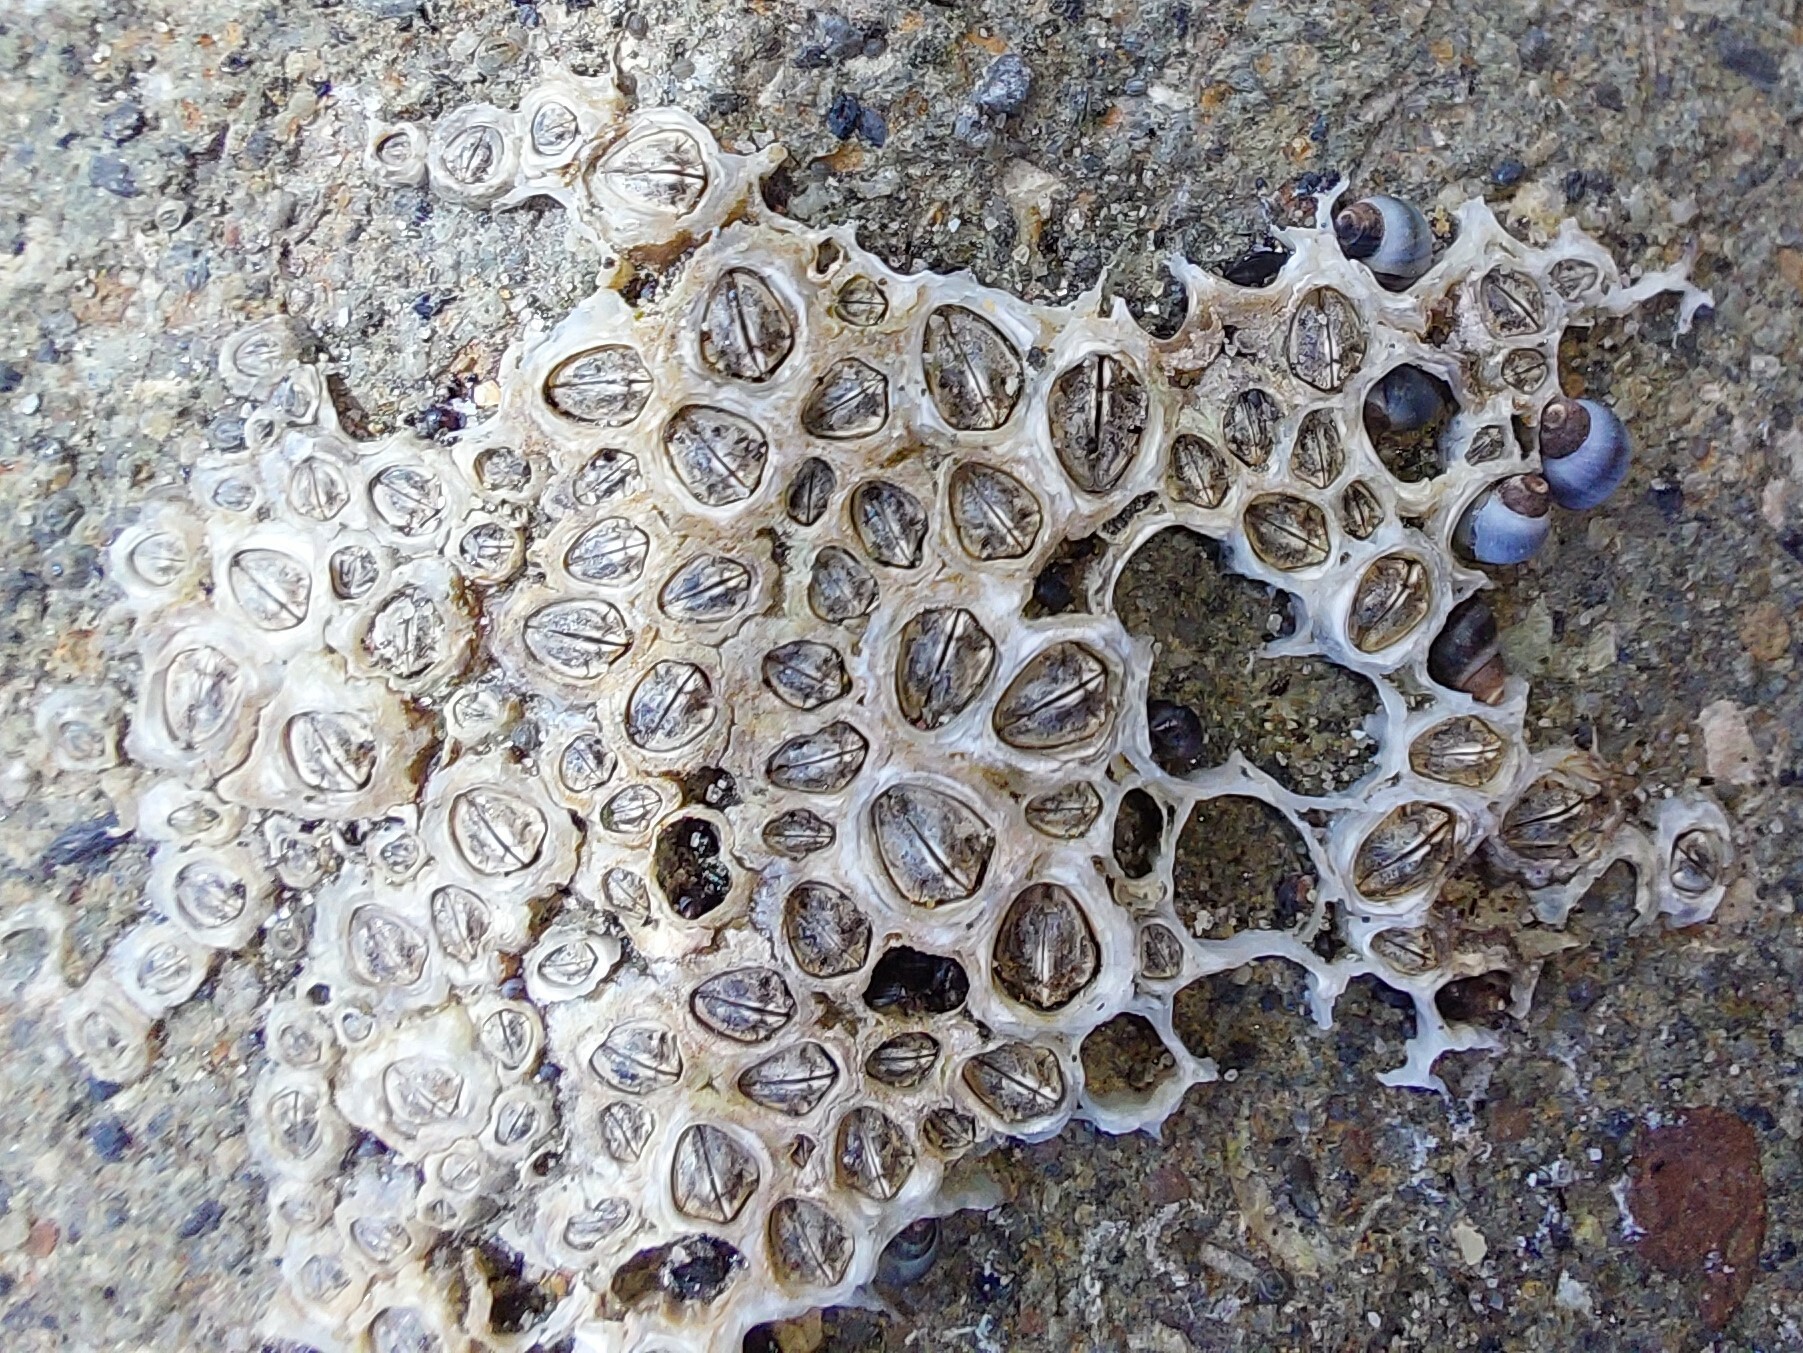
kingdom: Animalia
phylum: Arthropoda
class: Maxillopoda
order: Sessilia
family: Chthamalidae
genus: Chamaesipho
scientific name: Chamaesipho columna
